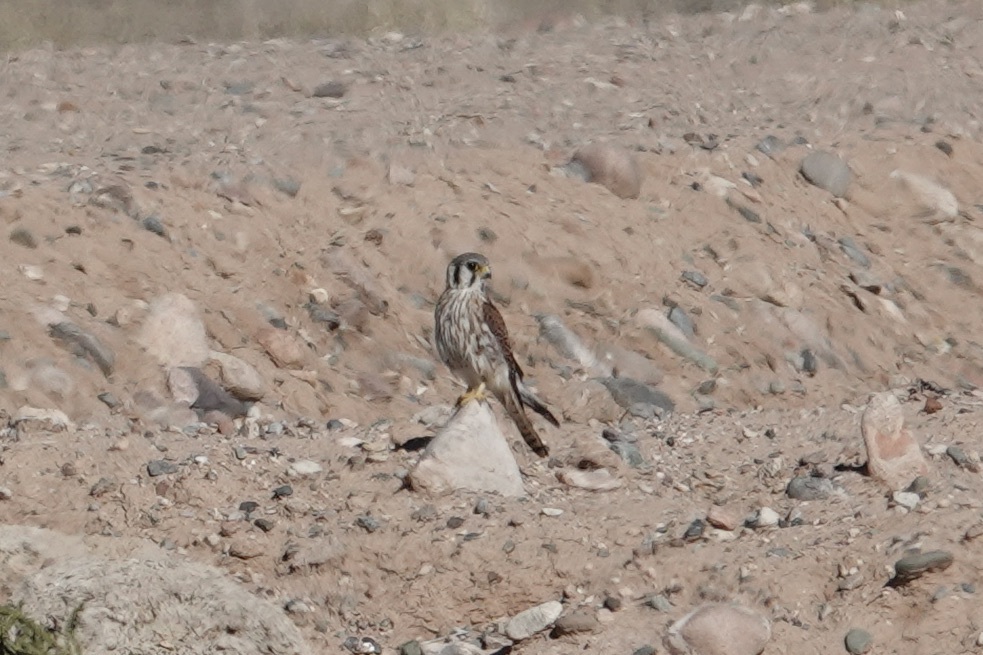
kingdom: Animalia
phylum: Chordata
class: Aves
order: Falconiformes
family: Falconidae
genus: Falco
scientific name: Falco sparverius
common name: American kestrel
